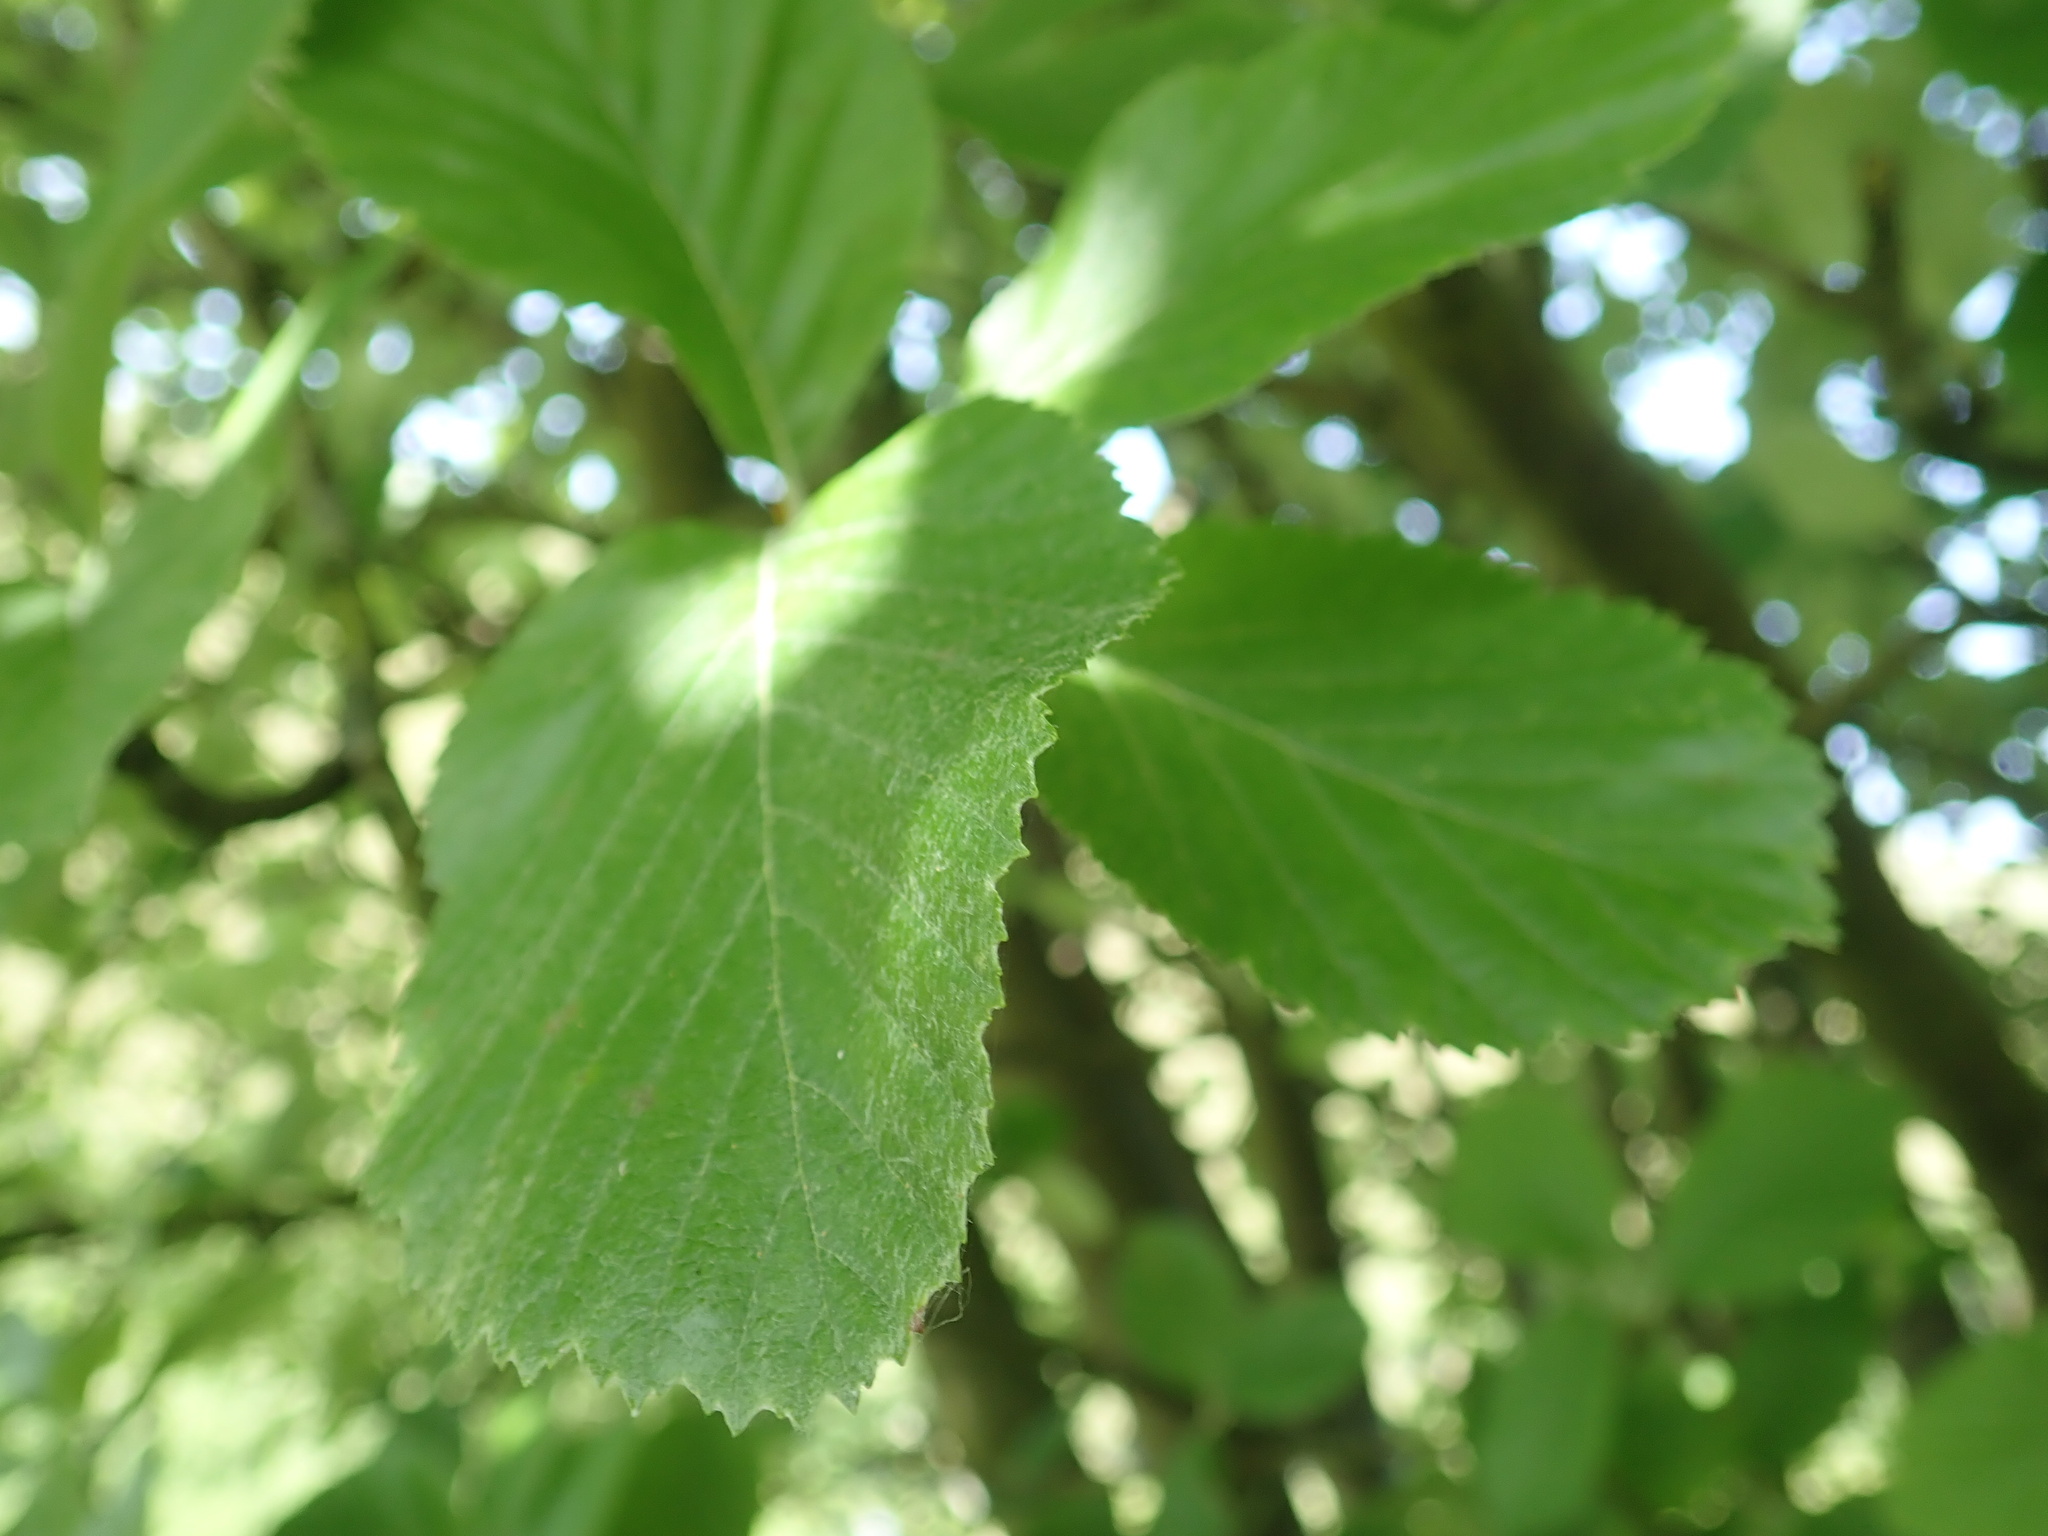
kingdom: Plantae
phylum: Tracheophyta
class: Magnoliopsida
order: Rosales
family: Rosaceae
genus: Aria
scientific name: Aria edulis
